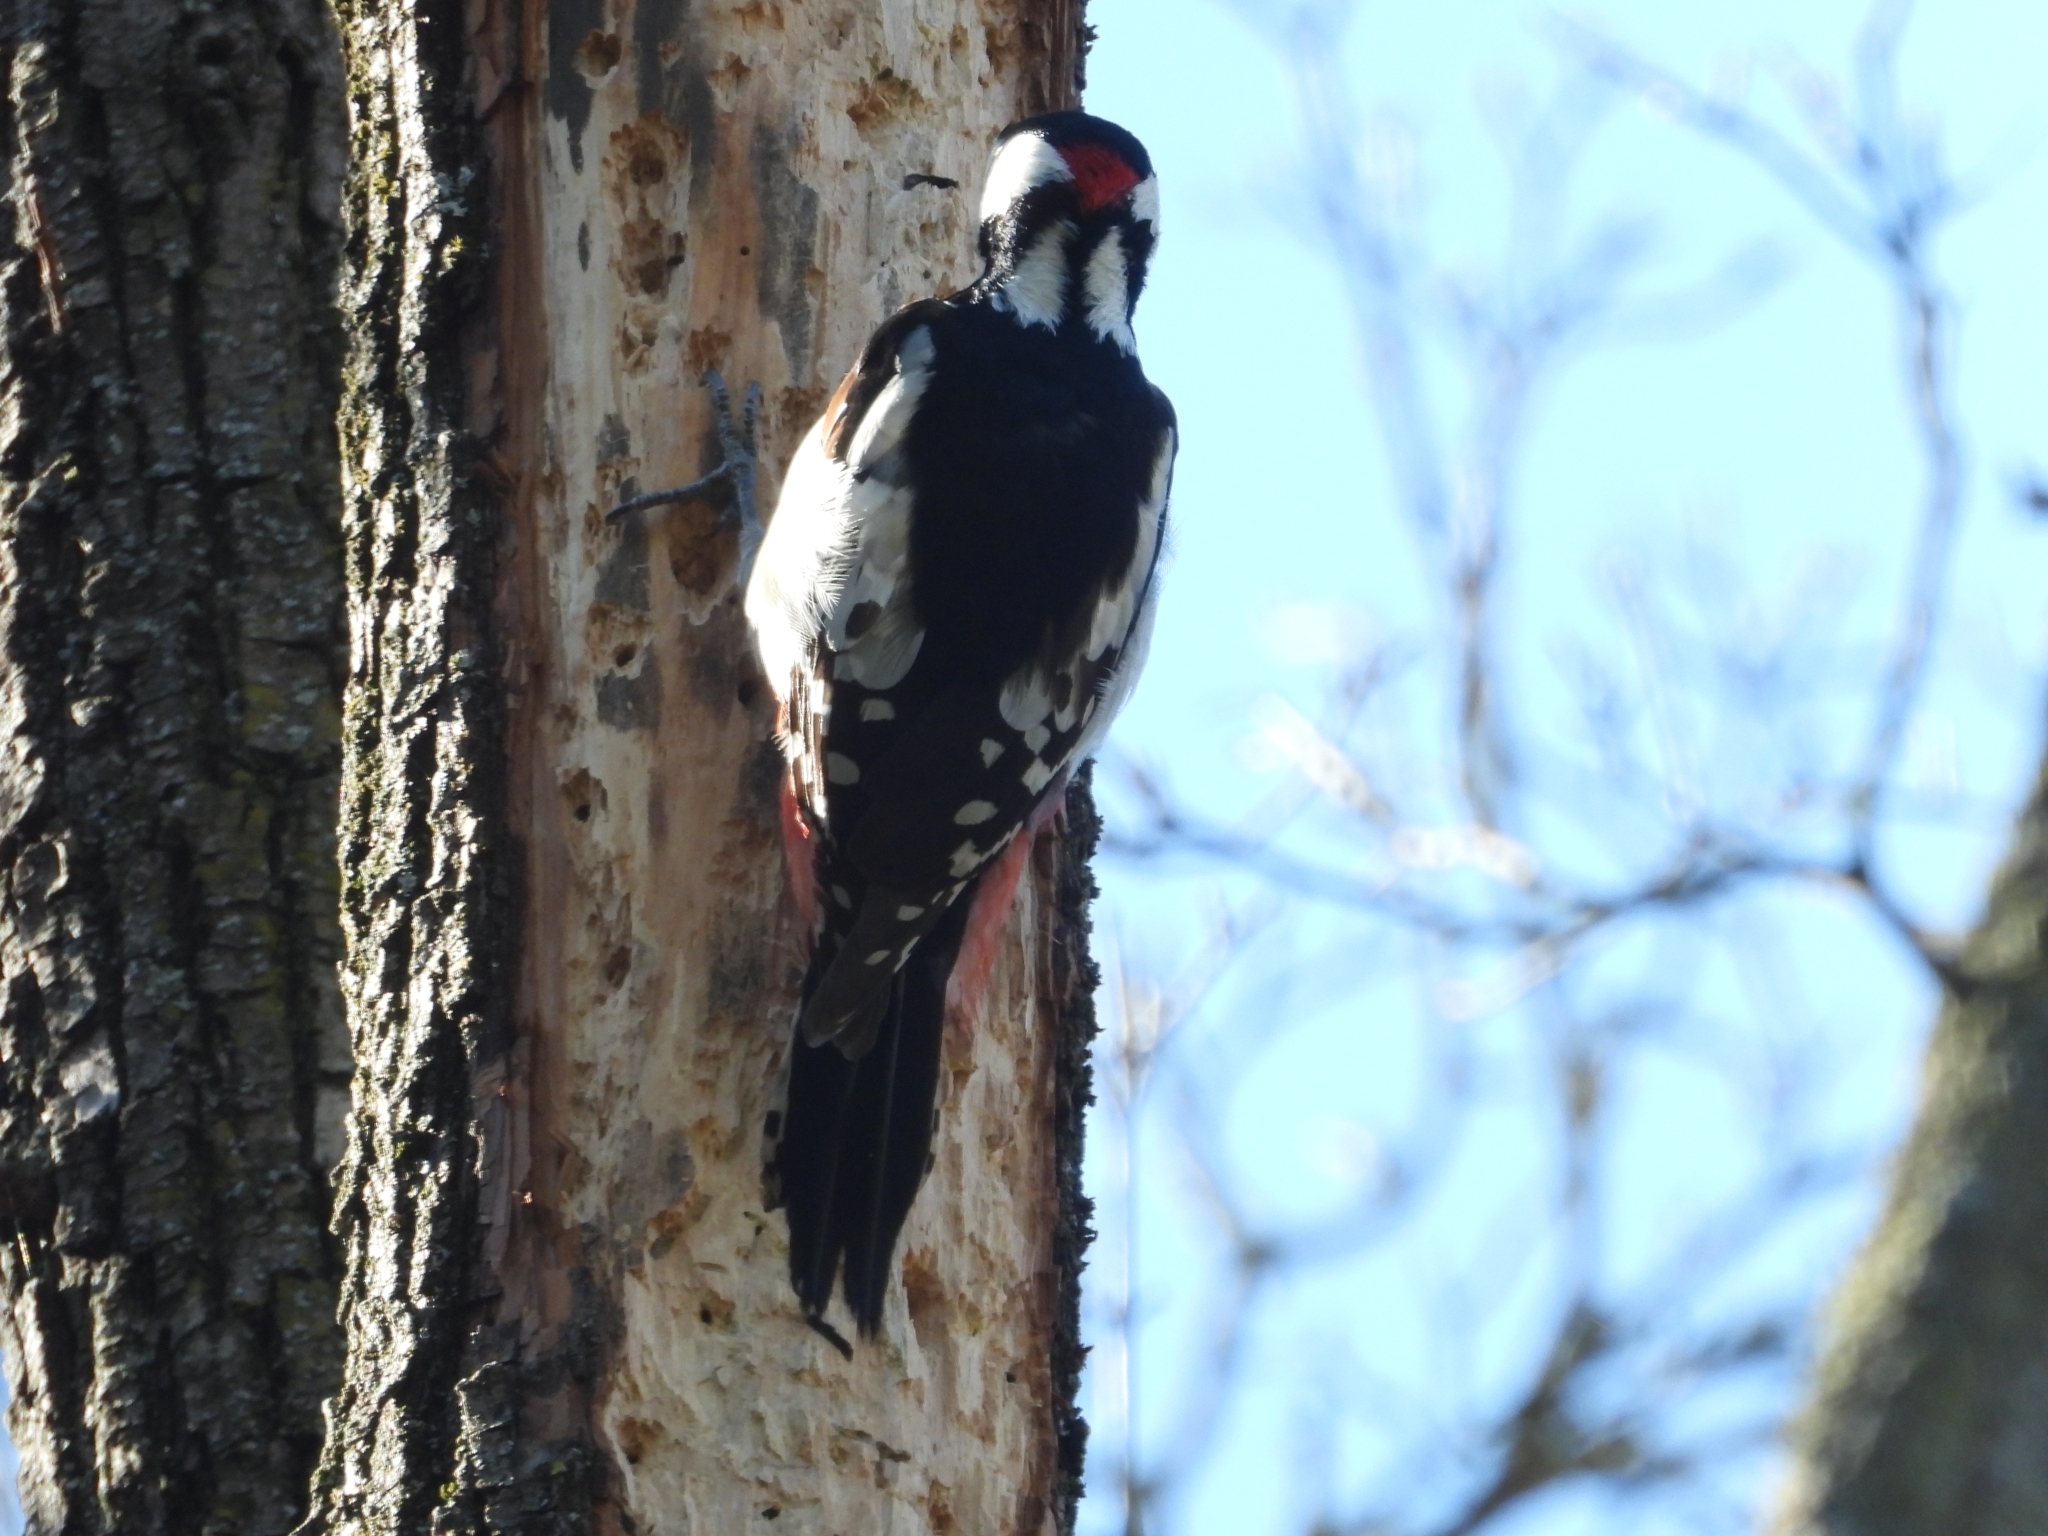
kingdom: Animalia
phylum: Chordata
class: Aves
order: Piciformes
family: Picidae
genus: Dendrocopos
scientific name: Dendrocopos major
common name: Great spotted woodpecker
